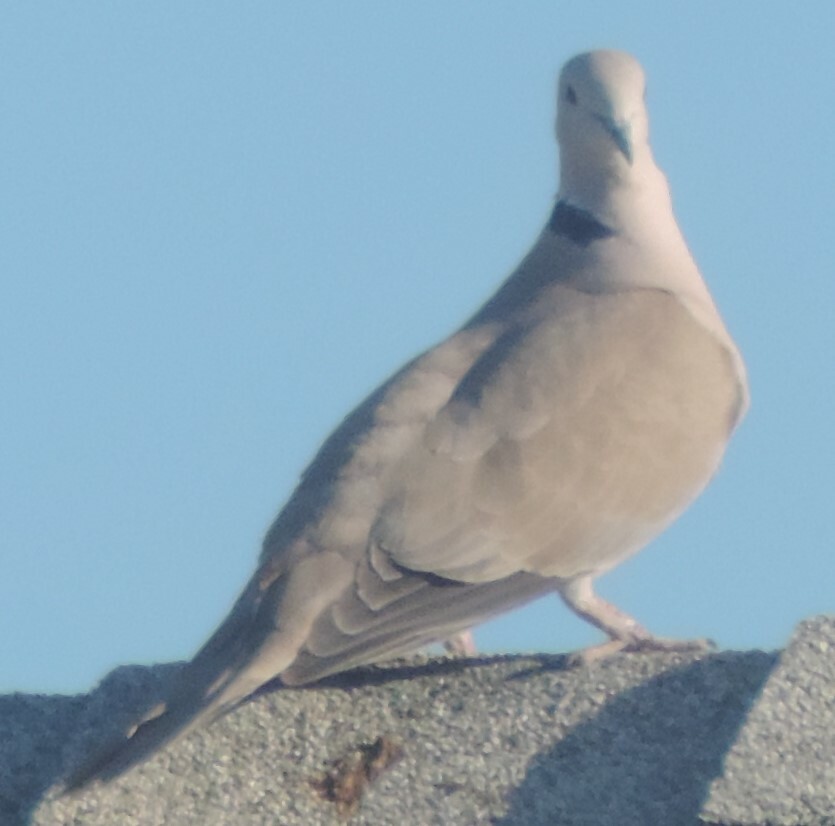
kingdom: Animalia
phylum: Chordata
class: Aves
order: Columbiformes
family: Columbidae
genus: Streptopelia
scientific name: Streptopelia decaocto
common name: Eurasian collared dove
